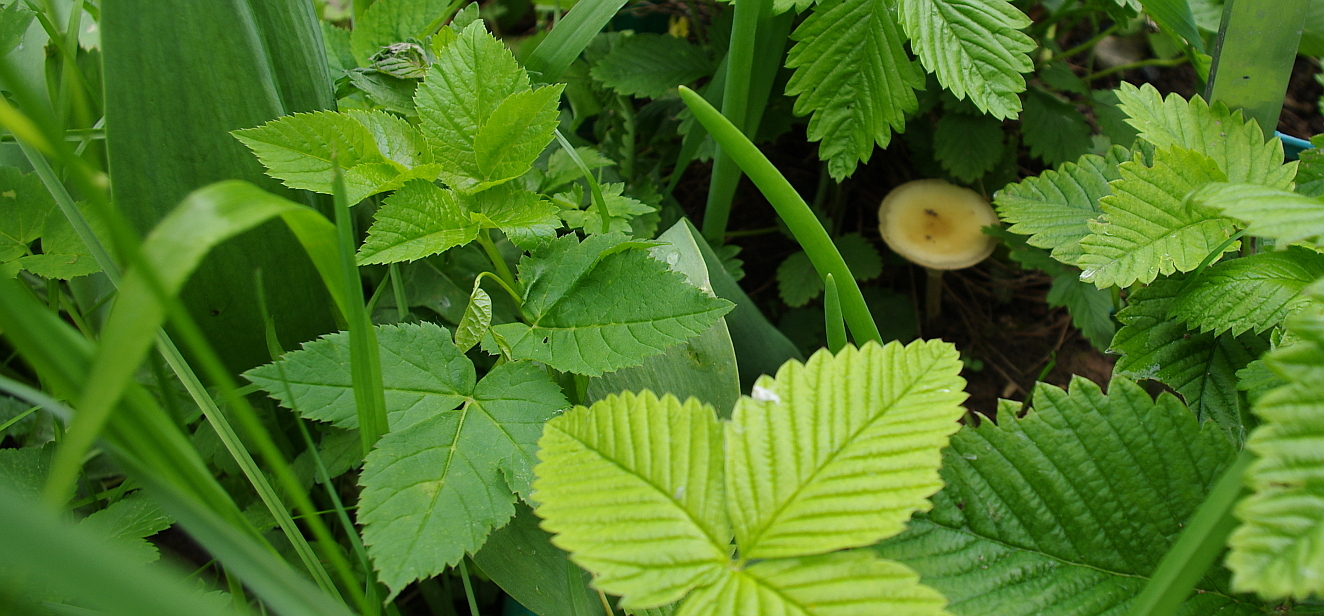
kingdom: Plantae
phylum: Tracheophyta
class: Magnoliopsida
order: Apiales
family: Apiaceae
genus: Aegopodium
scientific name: Aegopodium podagraria
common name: Ground-elder
